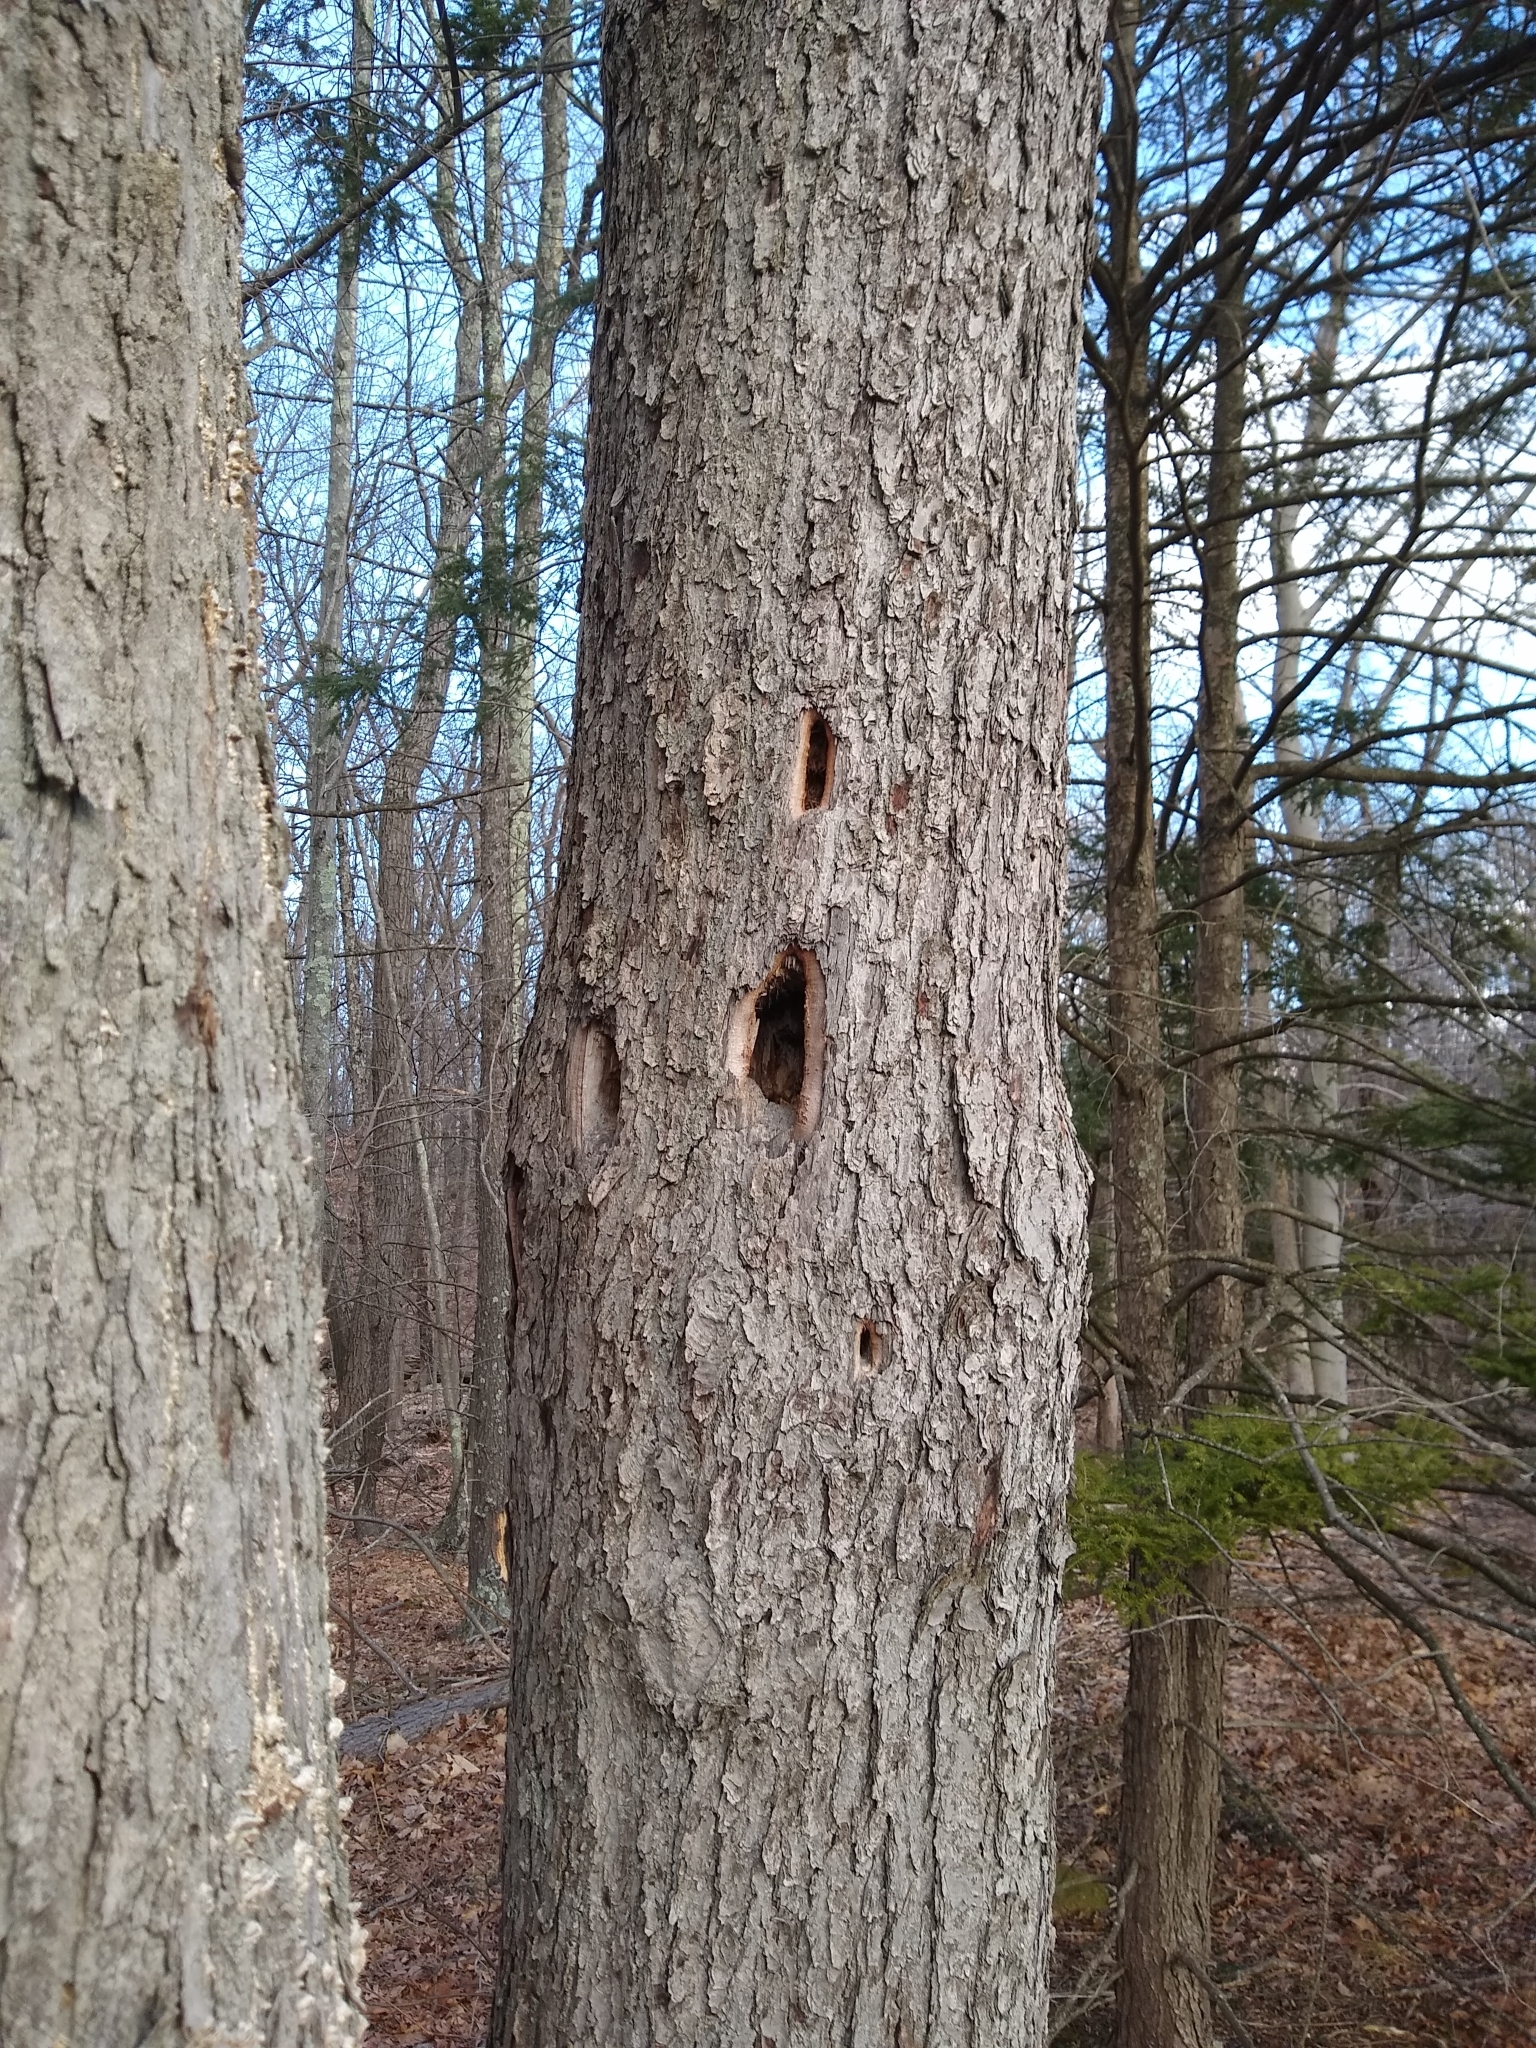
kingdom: Animalia
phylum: Chordata
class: Aves
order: Piciformes
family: Picidae
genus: Dryocopus
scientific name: Dryocopus pileatus
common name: Pileated woodpecker
